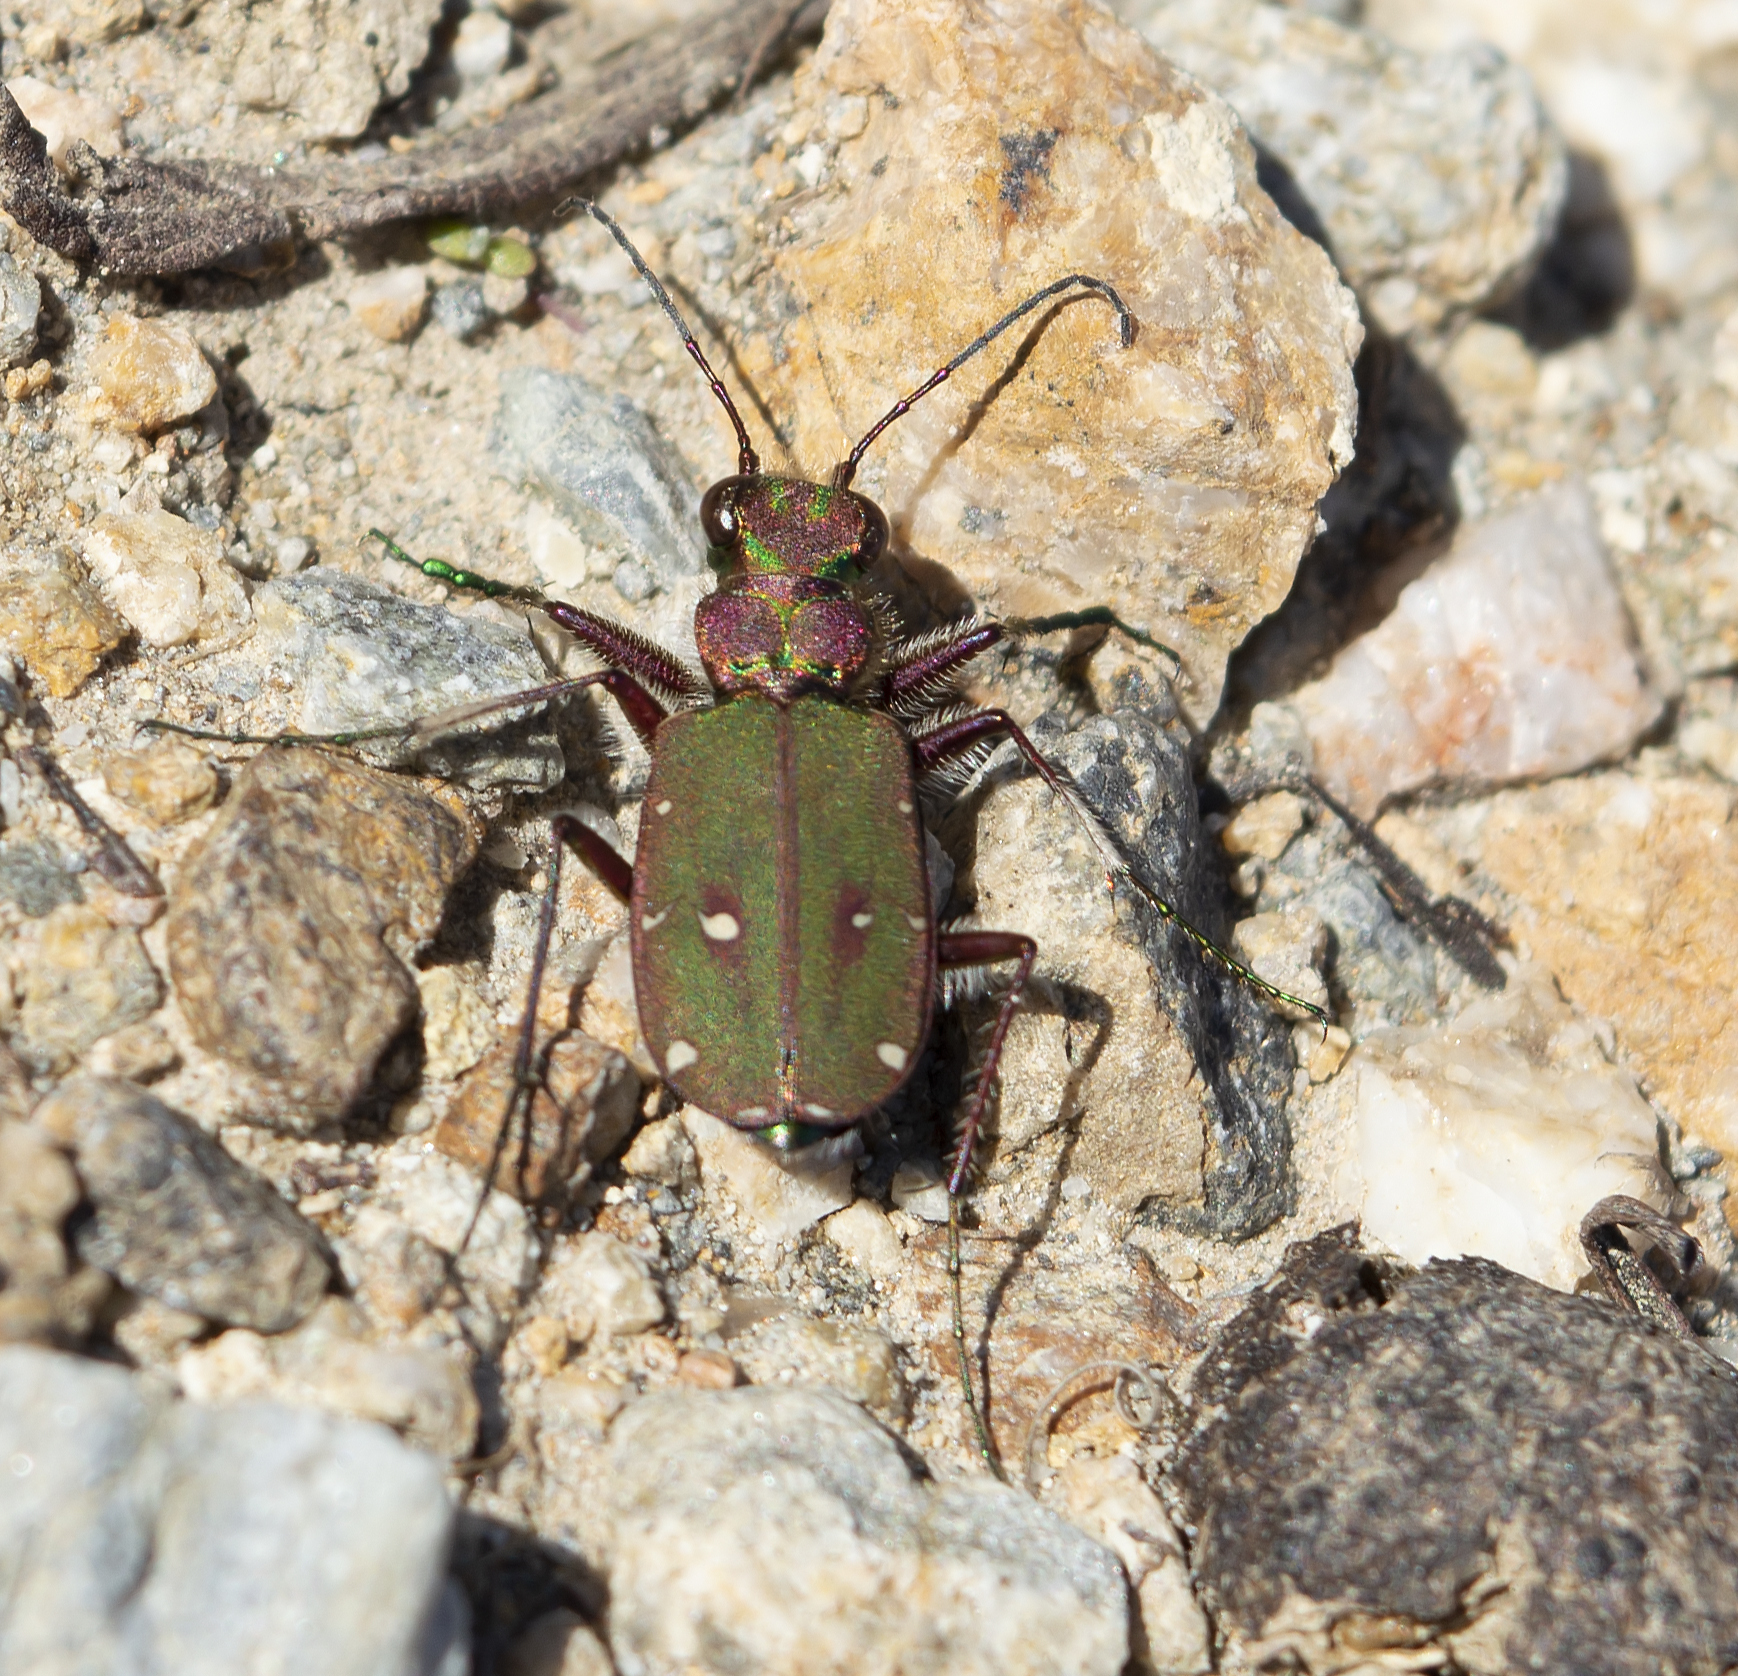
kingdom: Animalia
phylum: Arthropoda
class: Insecta
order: Coleoptera
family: Carabidae
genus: Cicindela
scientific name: Cicindela campestris
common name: Common tiger beetle
